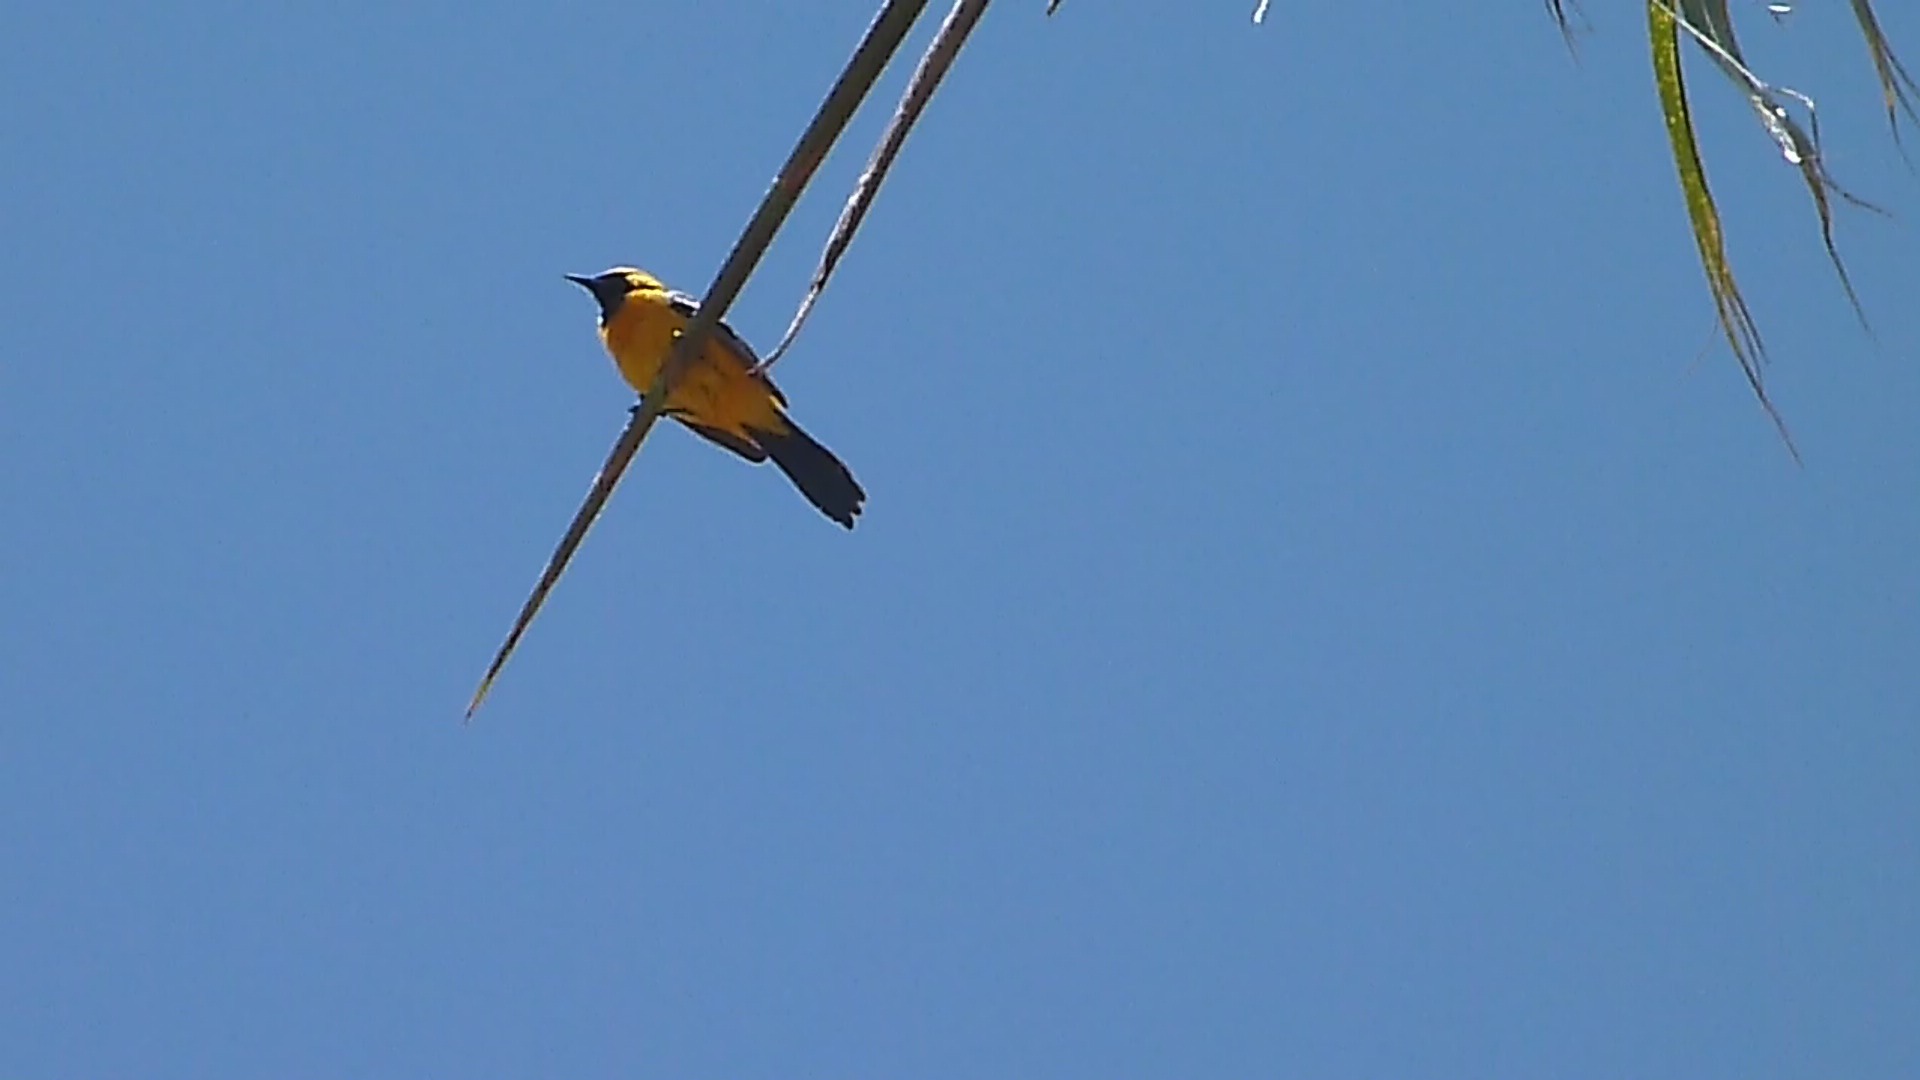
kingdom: Animalia
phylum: Chordata
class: Aves
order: Passeriformes
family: Icteridae
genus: Icterus
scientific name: Icterus cucullatus
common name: Hooded oriole
